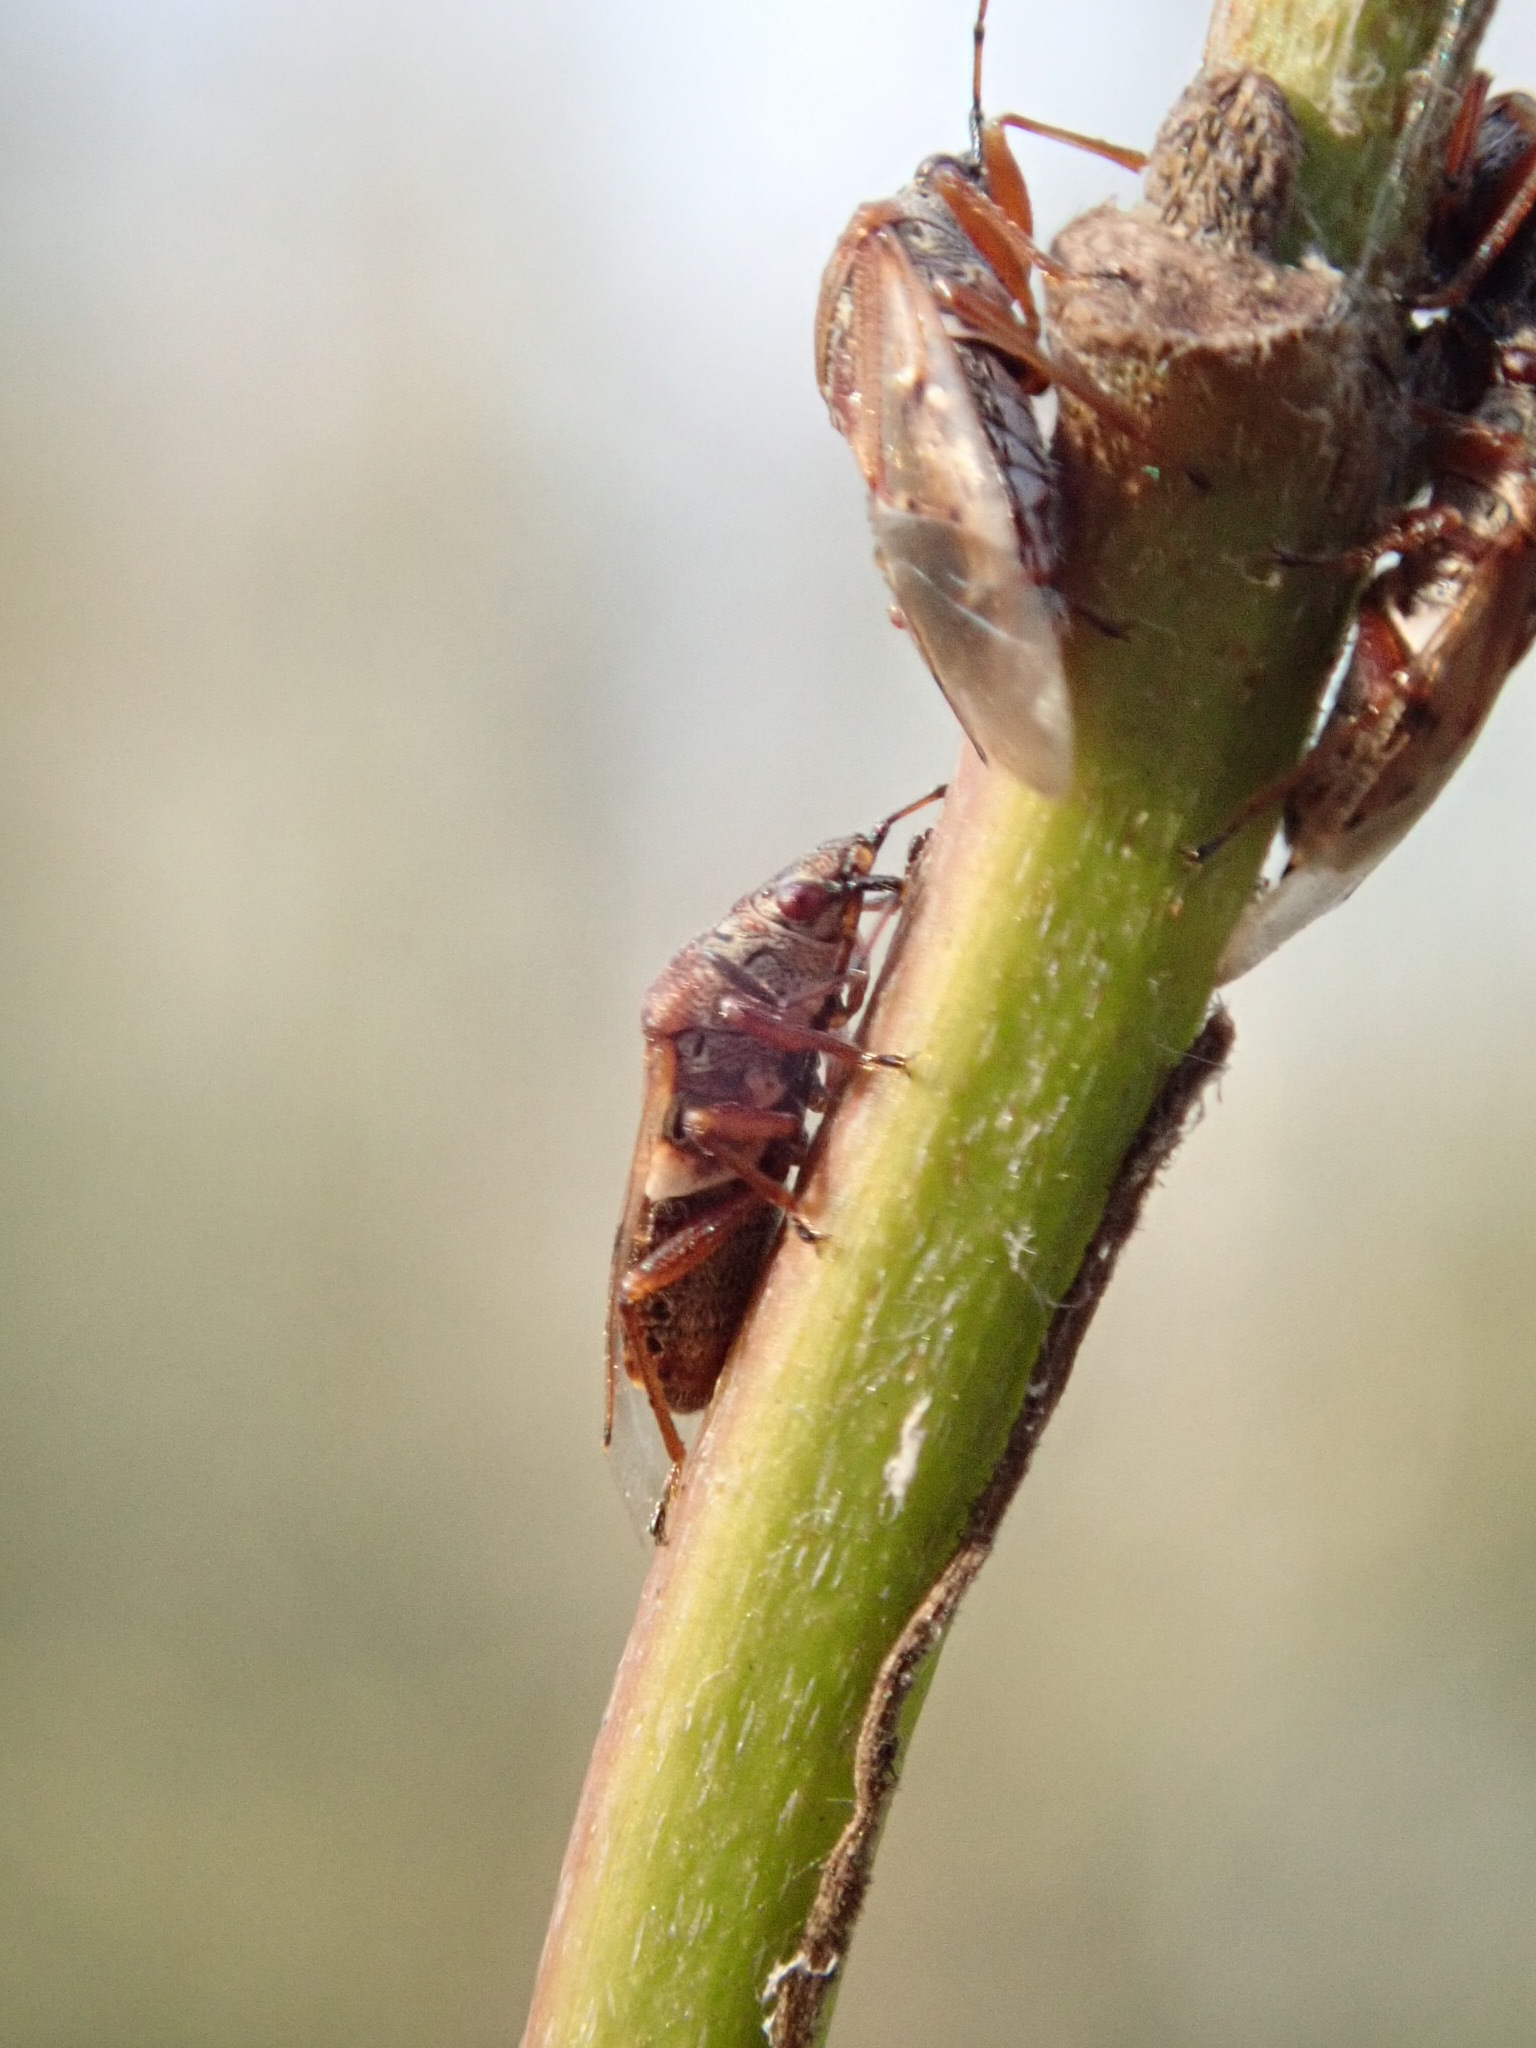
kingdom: Animalia
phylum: Arthropoda
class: Insecta
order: Hemiptera
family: Lygaeidae
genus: Kleidocerys
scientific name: Kleidocerys resedae
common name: Birch catkin bug
